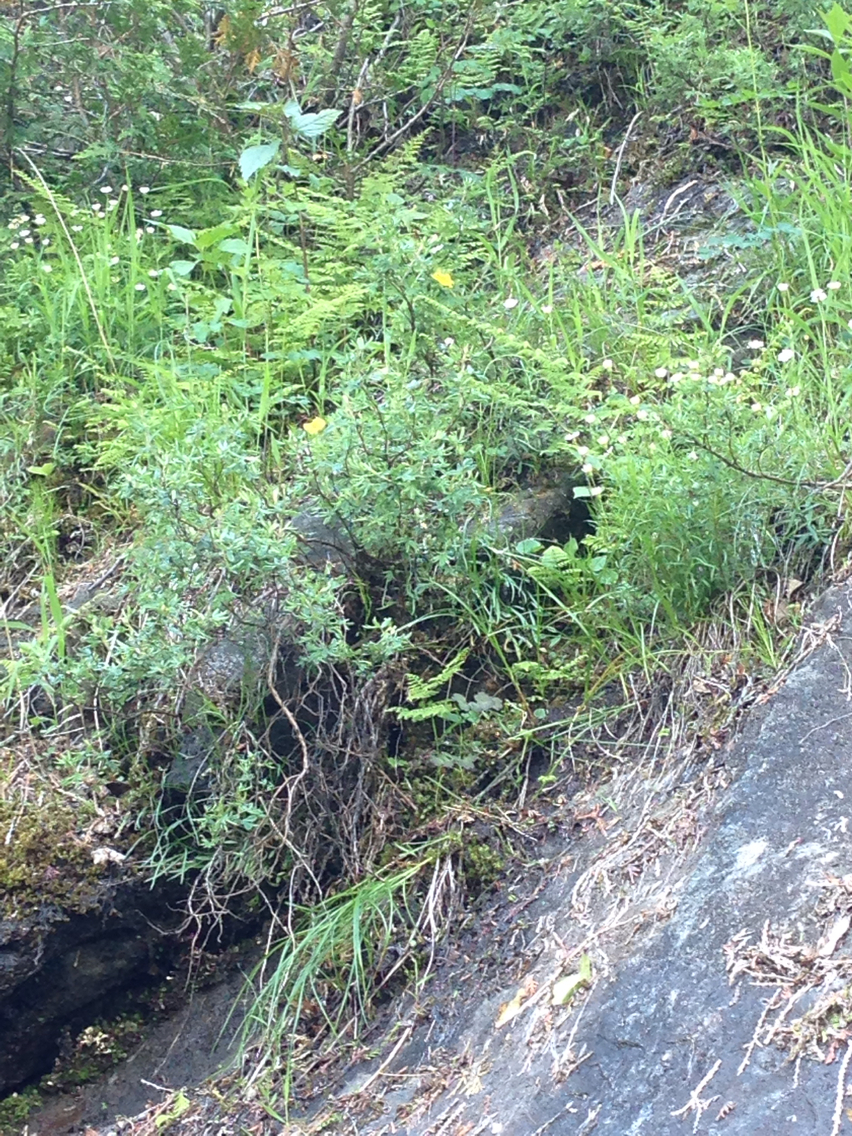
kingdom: Plantae
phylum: Tracheophyta
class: Magnoliopsida
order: Rosales
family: Rosaceae
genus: Dasiphora
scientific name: Dasiphora fruticosa
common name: Shrubby cinquefoil
